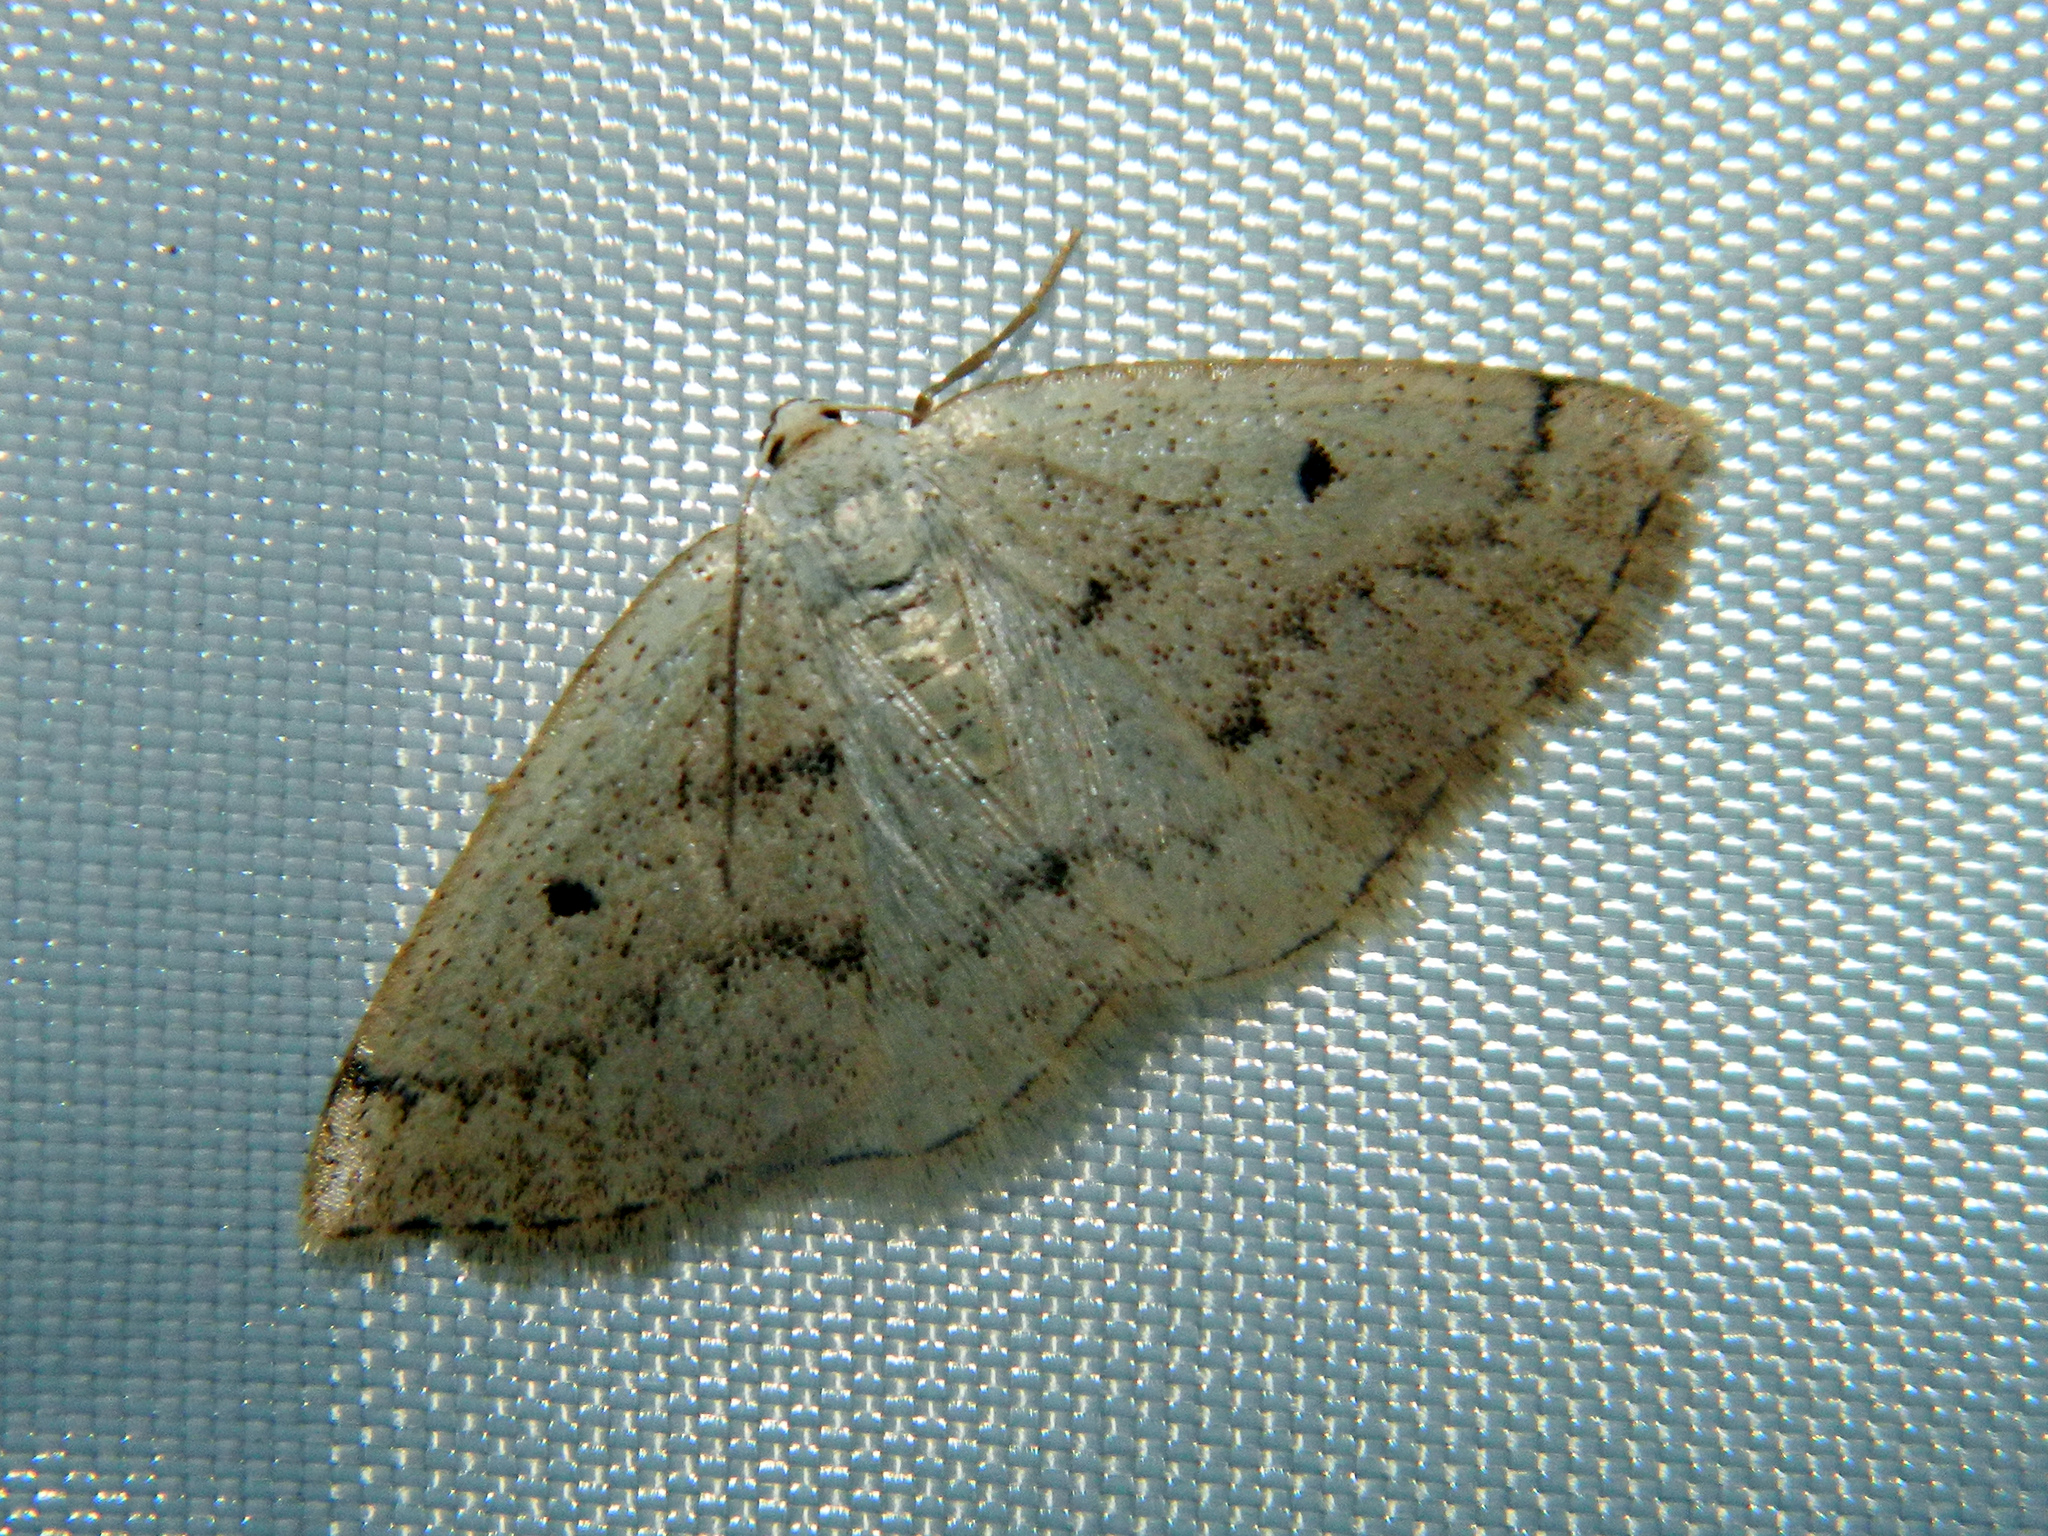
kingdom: Animalia
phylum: Arthropoda
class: Insecta
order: Lepidoptera
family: Geometridae
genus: Lomographa
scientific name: Lomographa glomeraria
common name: Gray spring moth
